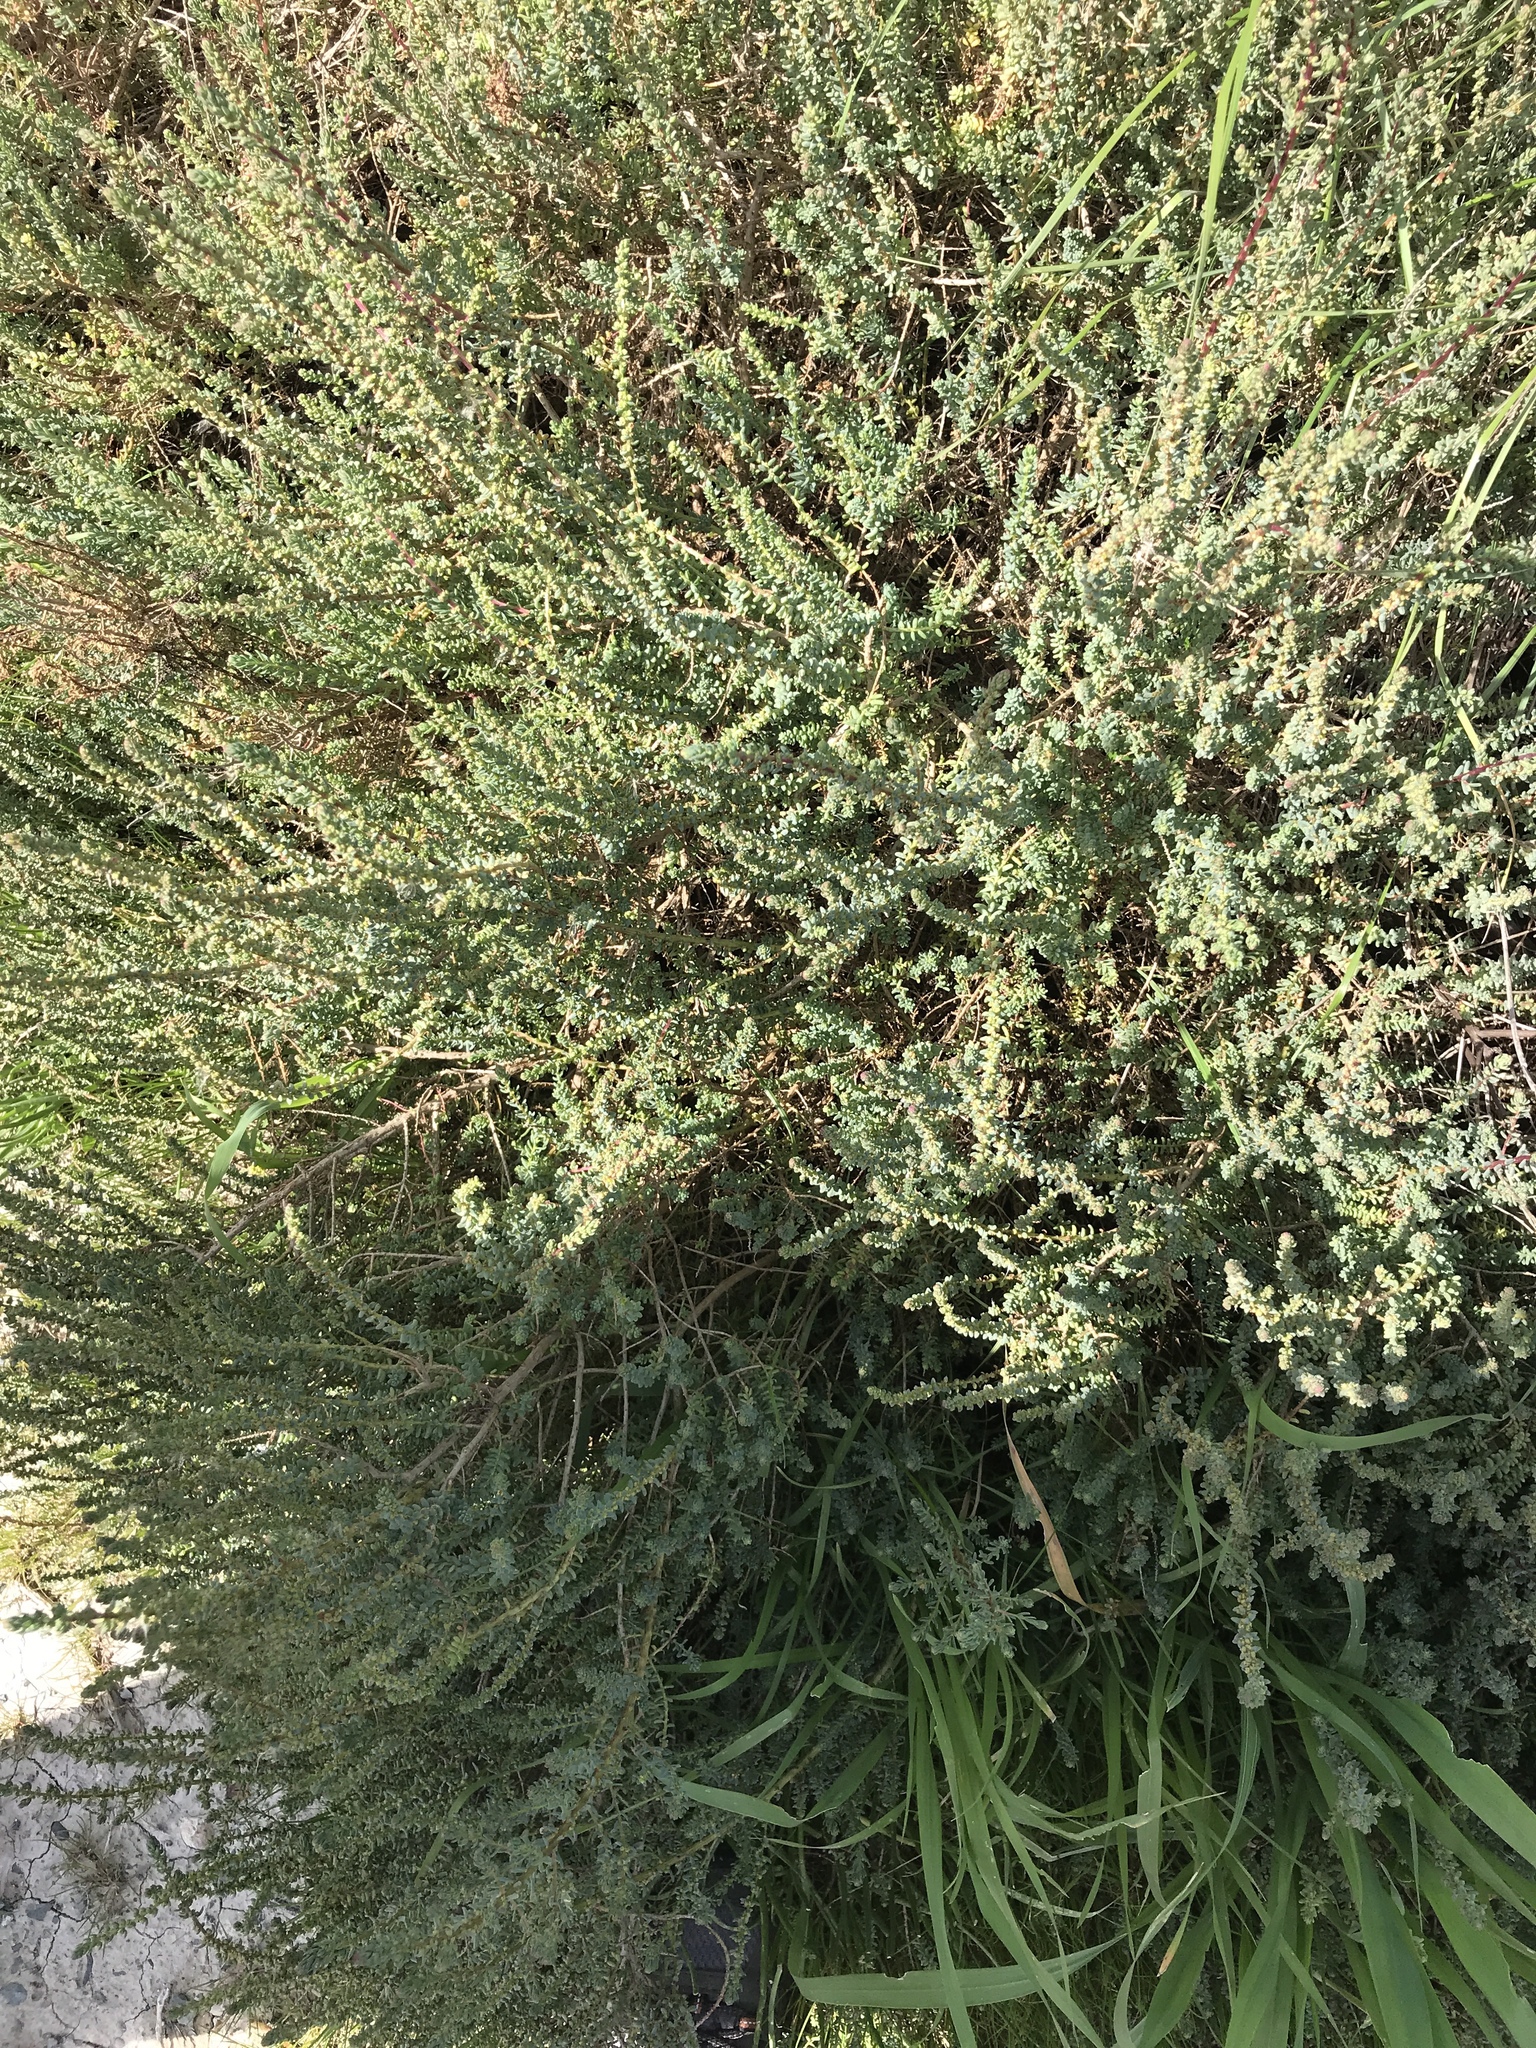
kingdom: Plantae
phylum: Tracheophyta
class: Magnoliopsida
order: Caryophyllales
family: Amaranthaceae
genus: Suaeda
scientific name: Suaeda vera
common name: Shrubby sea-blite
